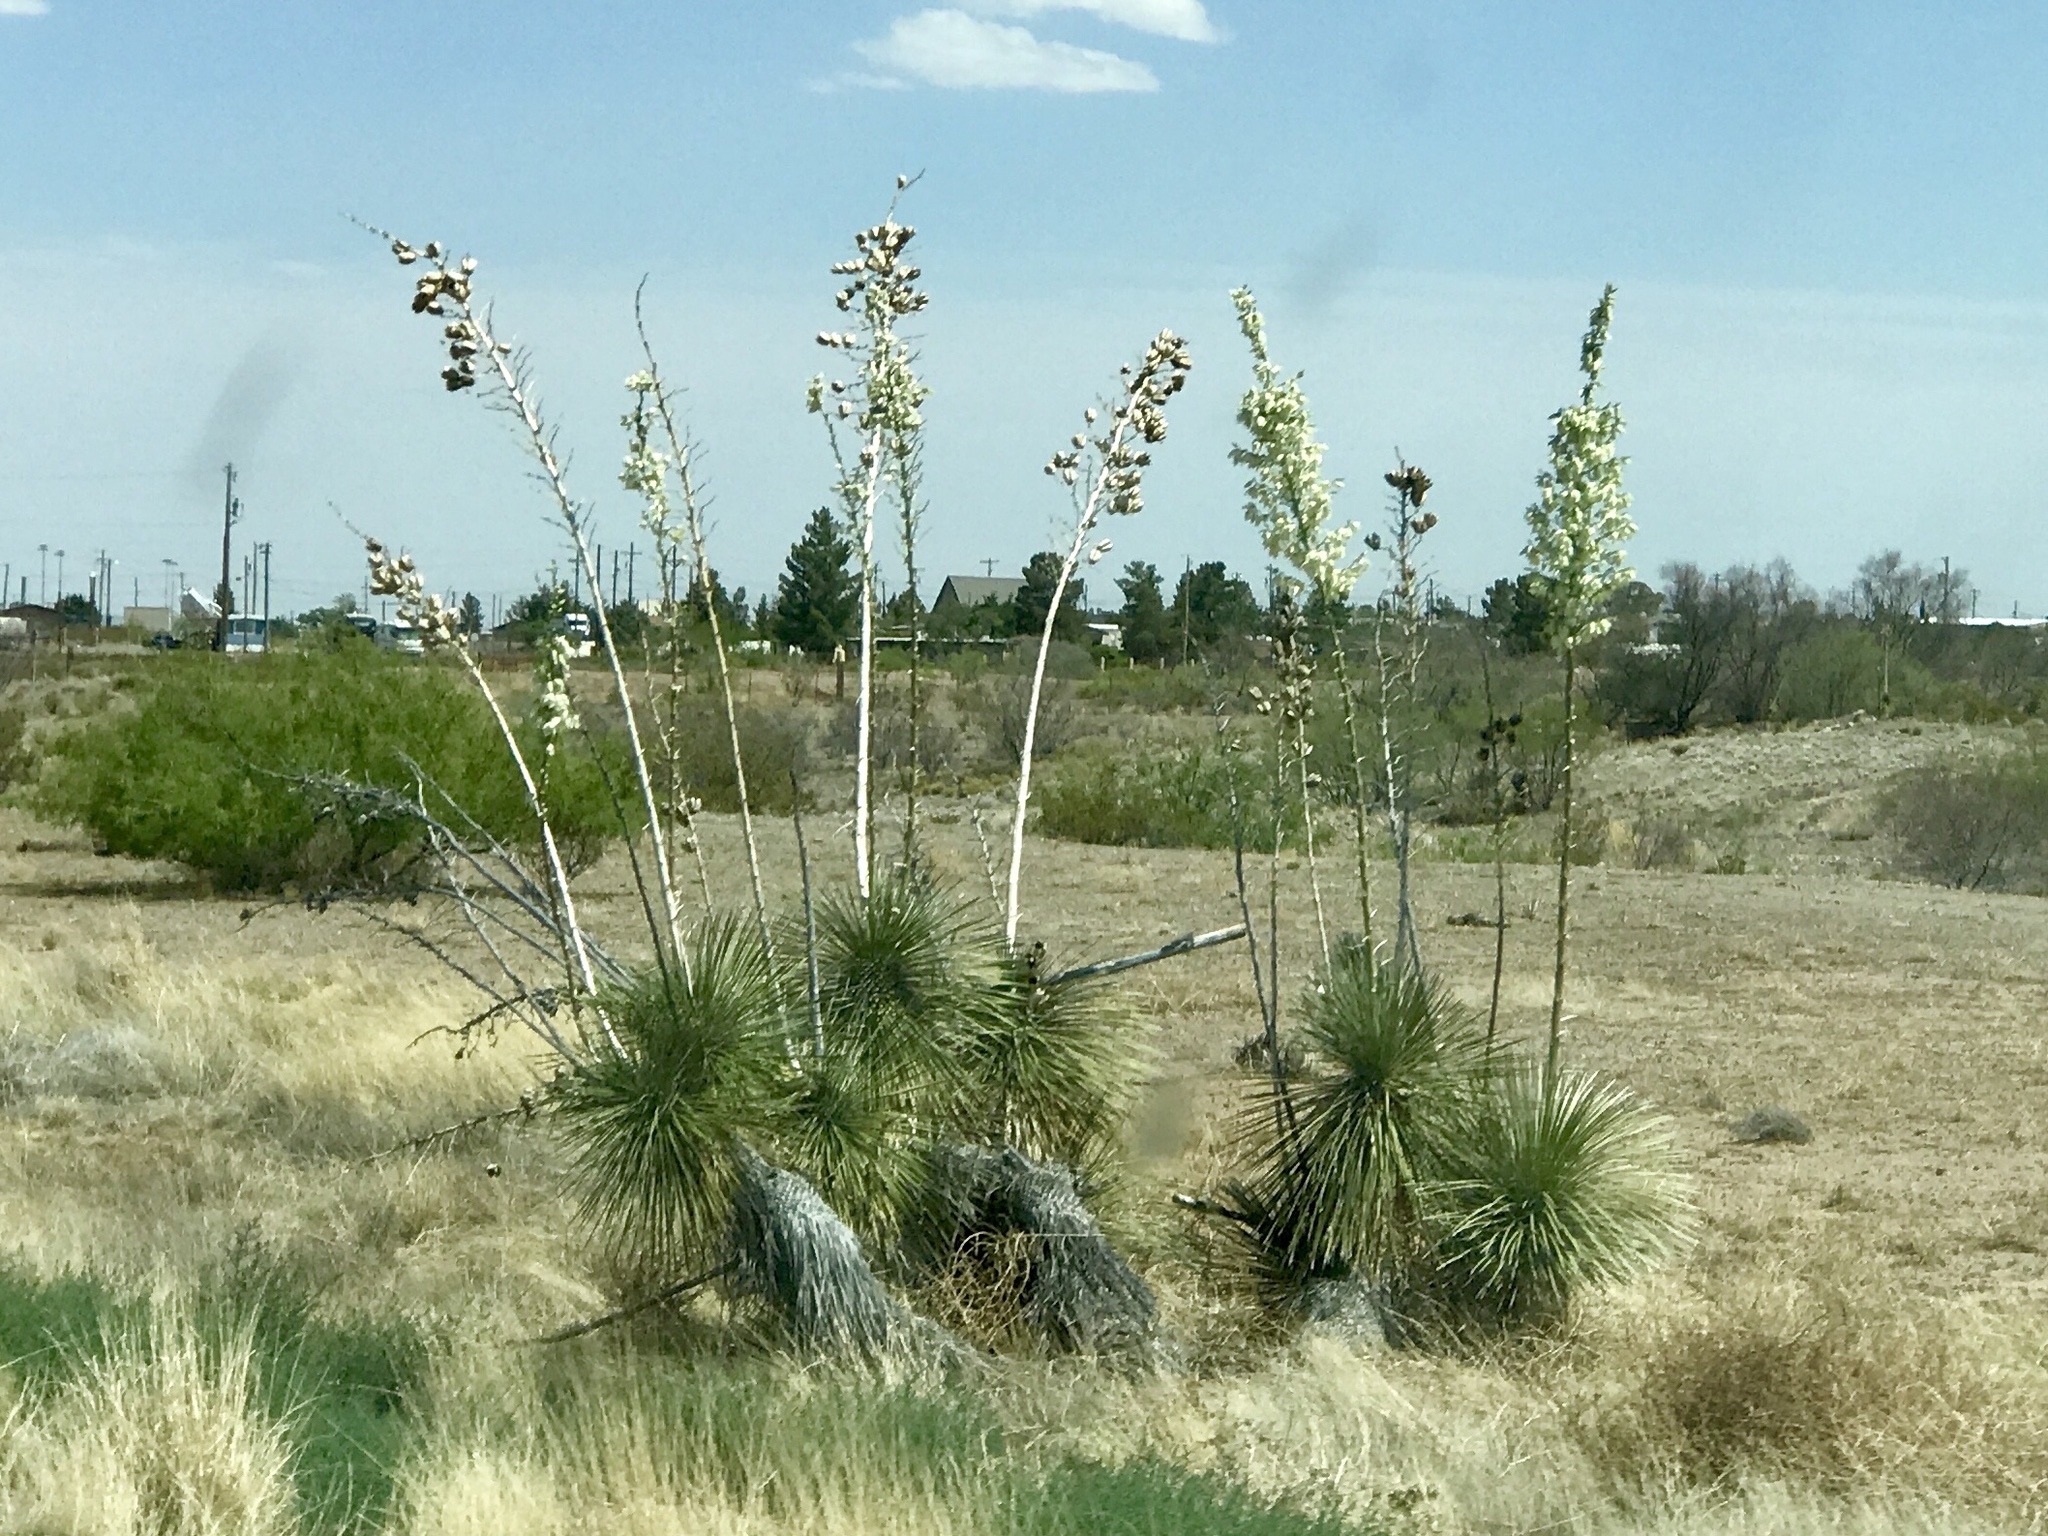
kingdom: Plantae
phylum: Tracheophyta
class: Liliopsida
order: Asparagales
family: Asparagaceae
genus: Yucca
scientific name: Yucca elata
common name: Palmella
